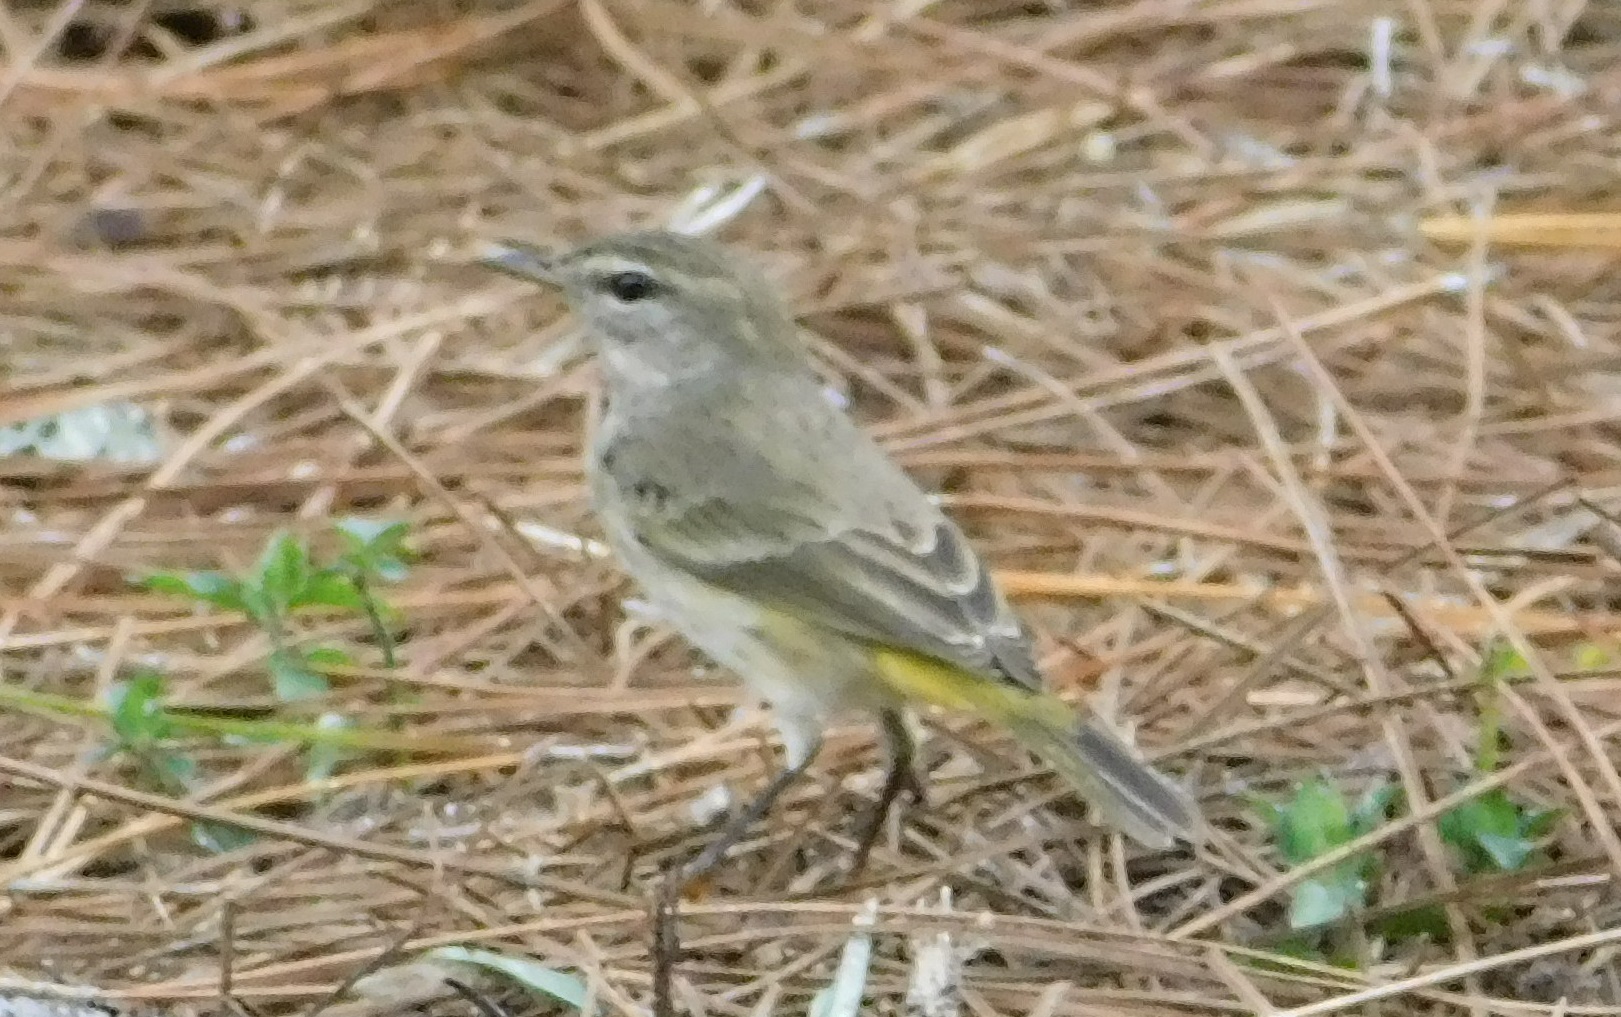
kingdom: Animalia
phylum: Chordata
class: Aves
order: Passeriformes
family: Parulidae
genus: Setophaga
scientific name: Setophaga palmarum
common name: Palm warbler
